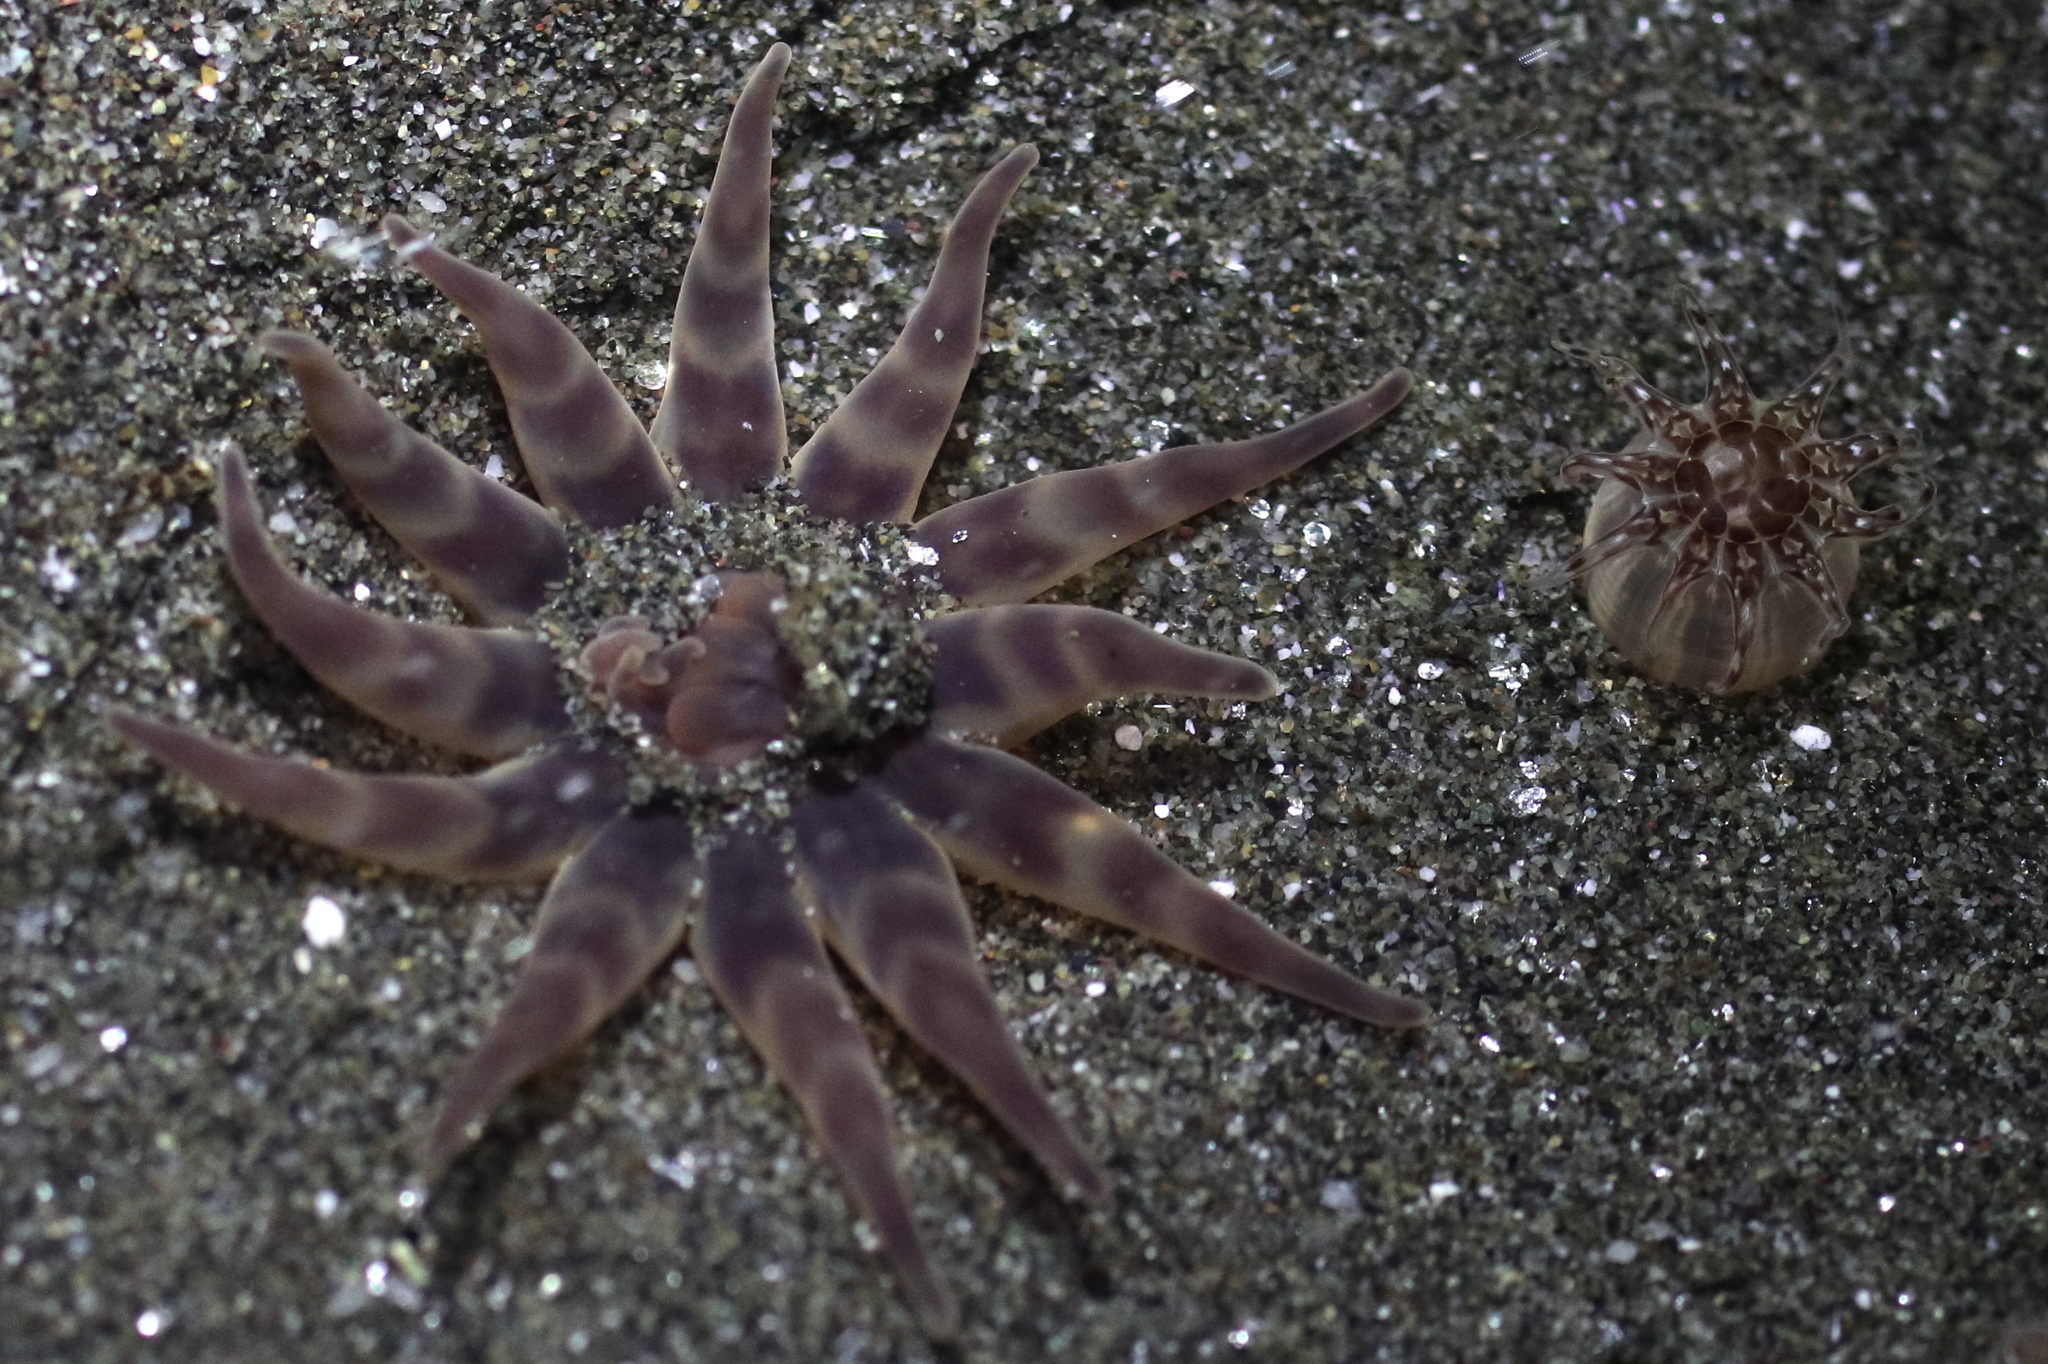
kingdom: Animalia
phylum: Cnidaria
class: Anthozoa
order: Actiniaria
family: Peachiidae
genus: Peachia
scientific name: Peachia quinquecapitata
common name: Twelve-tentacled parasitic anemone
